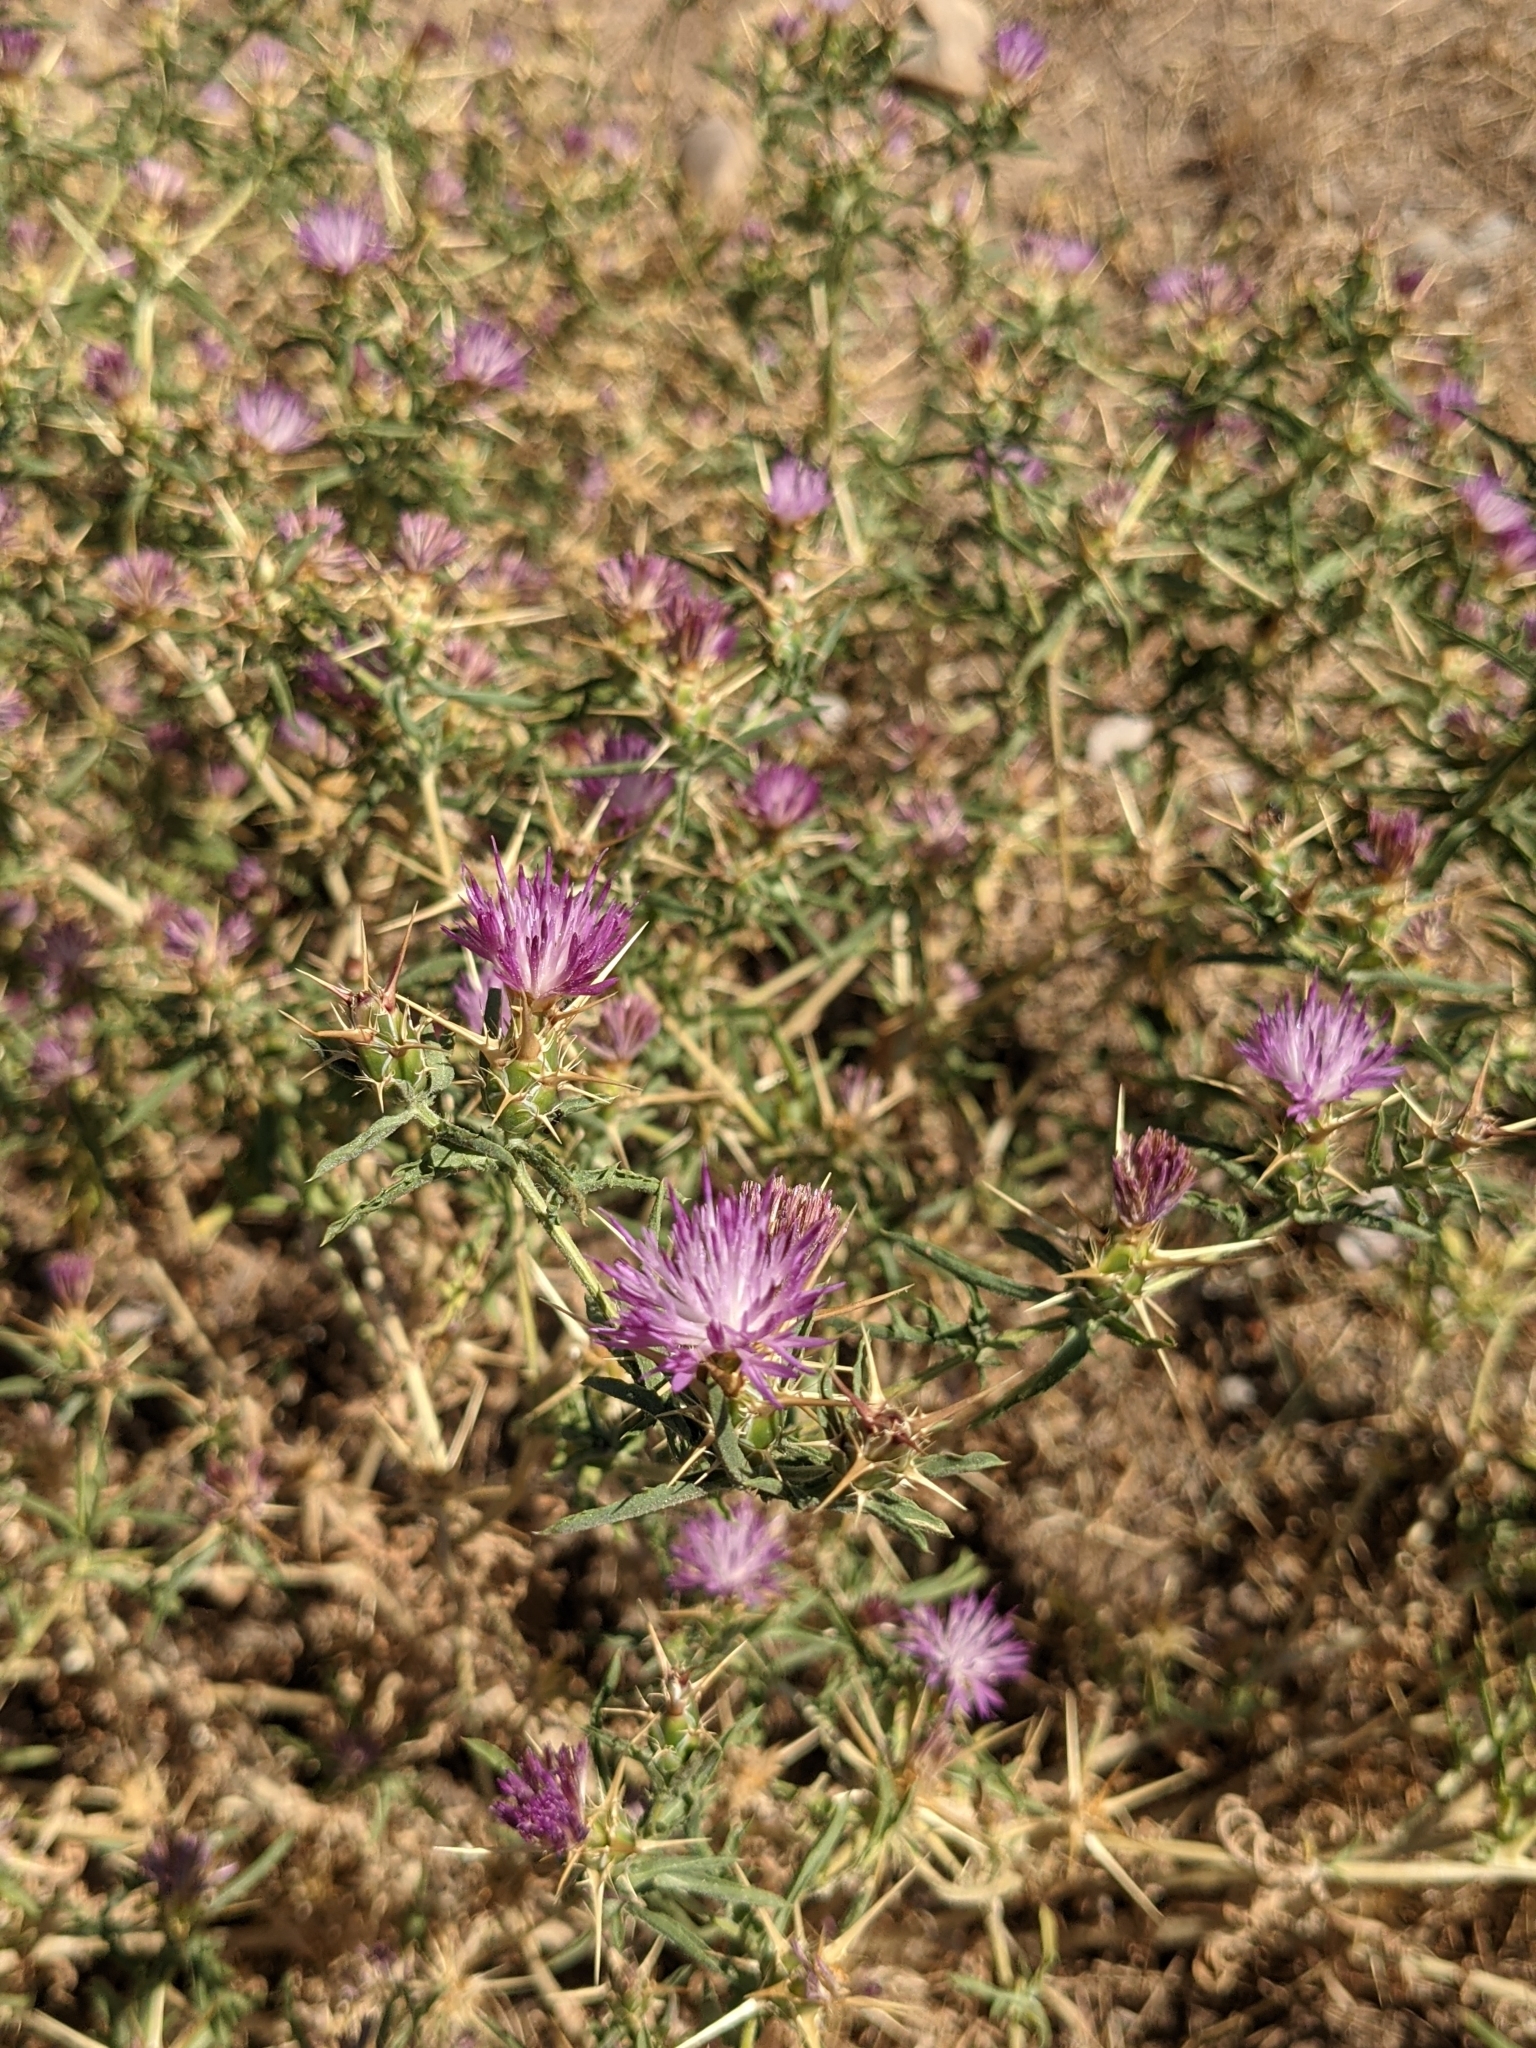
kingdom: Plantae
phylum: Tracheophyta
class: Magnoliopsida
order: Asterales
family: Asteraceae
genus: Centaurea
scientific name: Centaurea calcitrapa
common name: Red star-thistle
